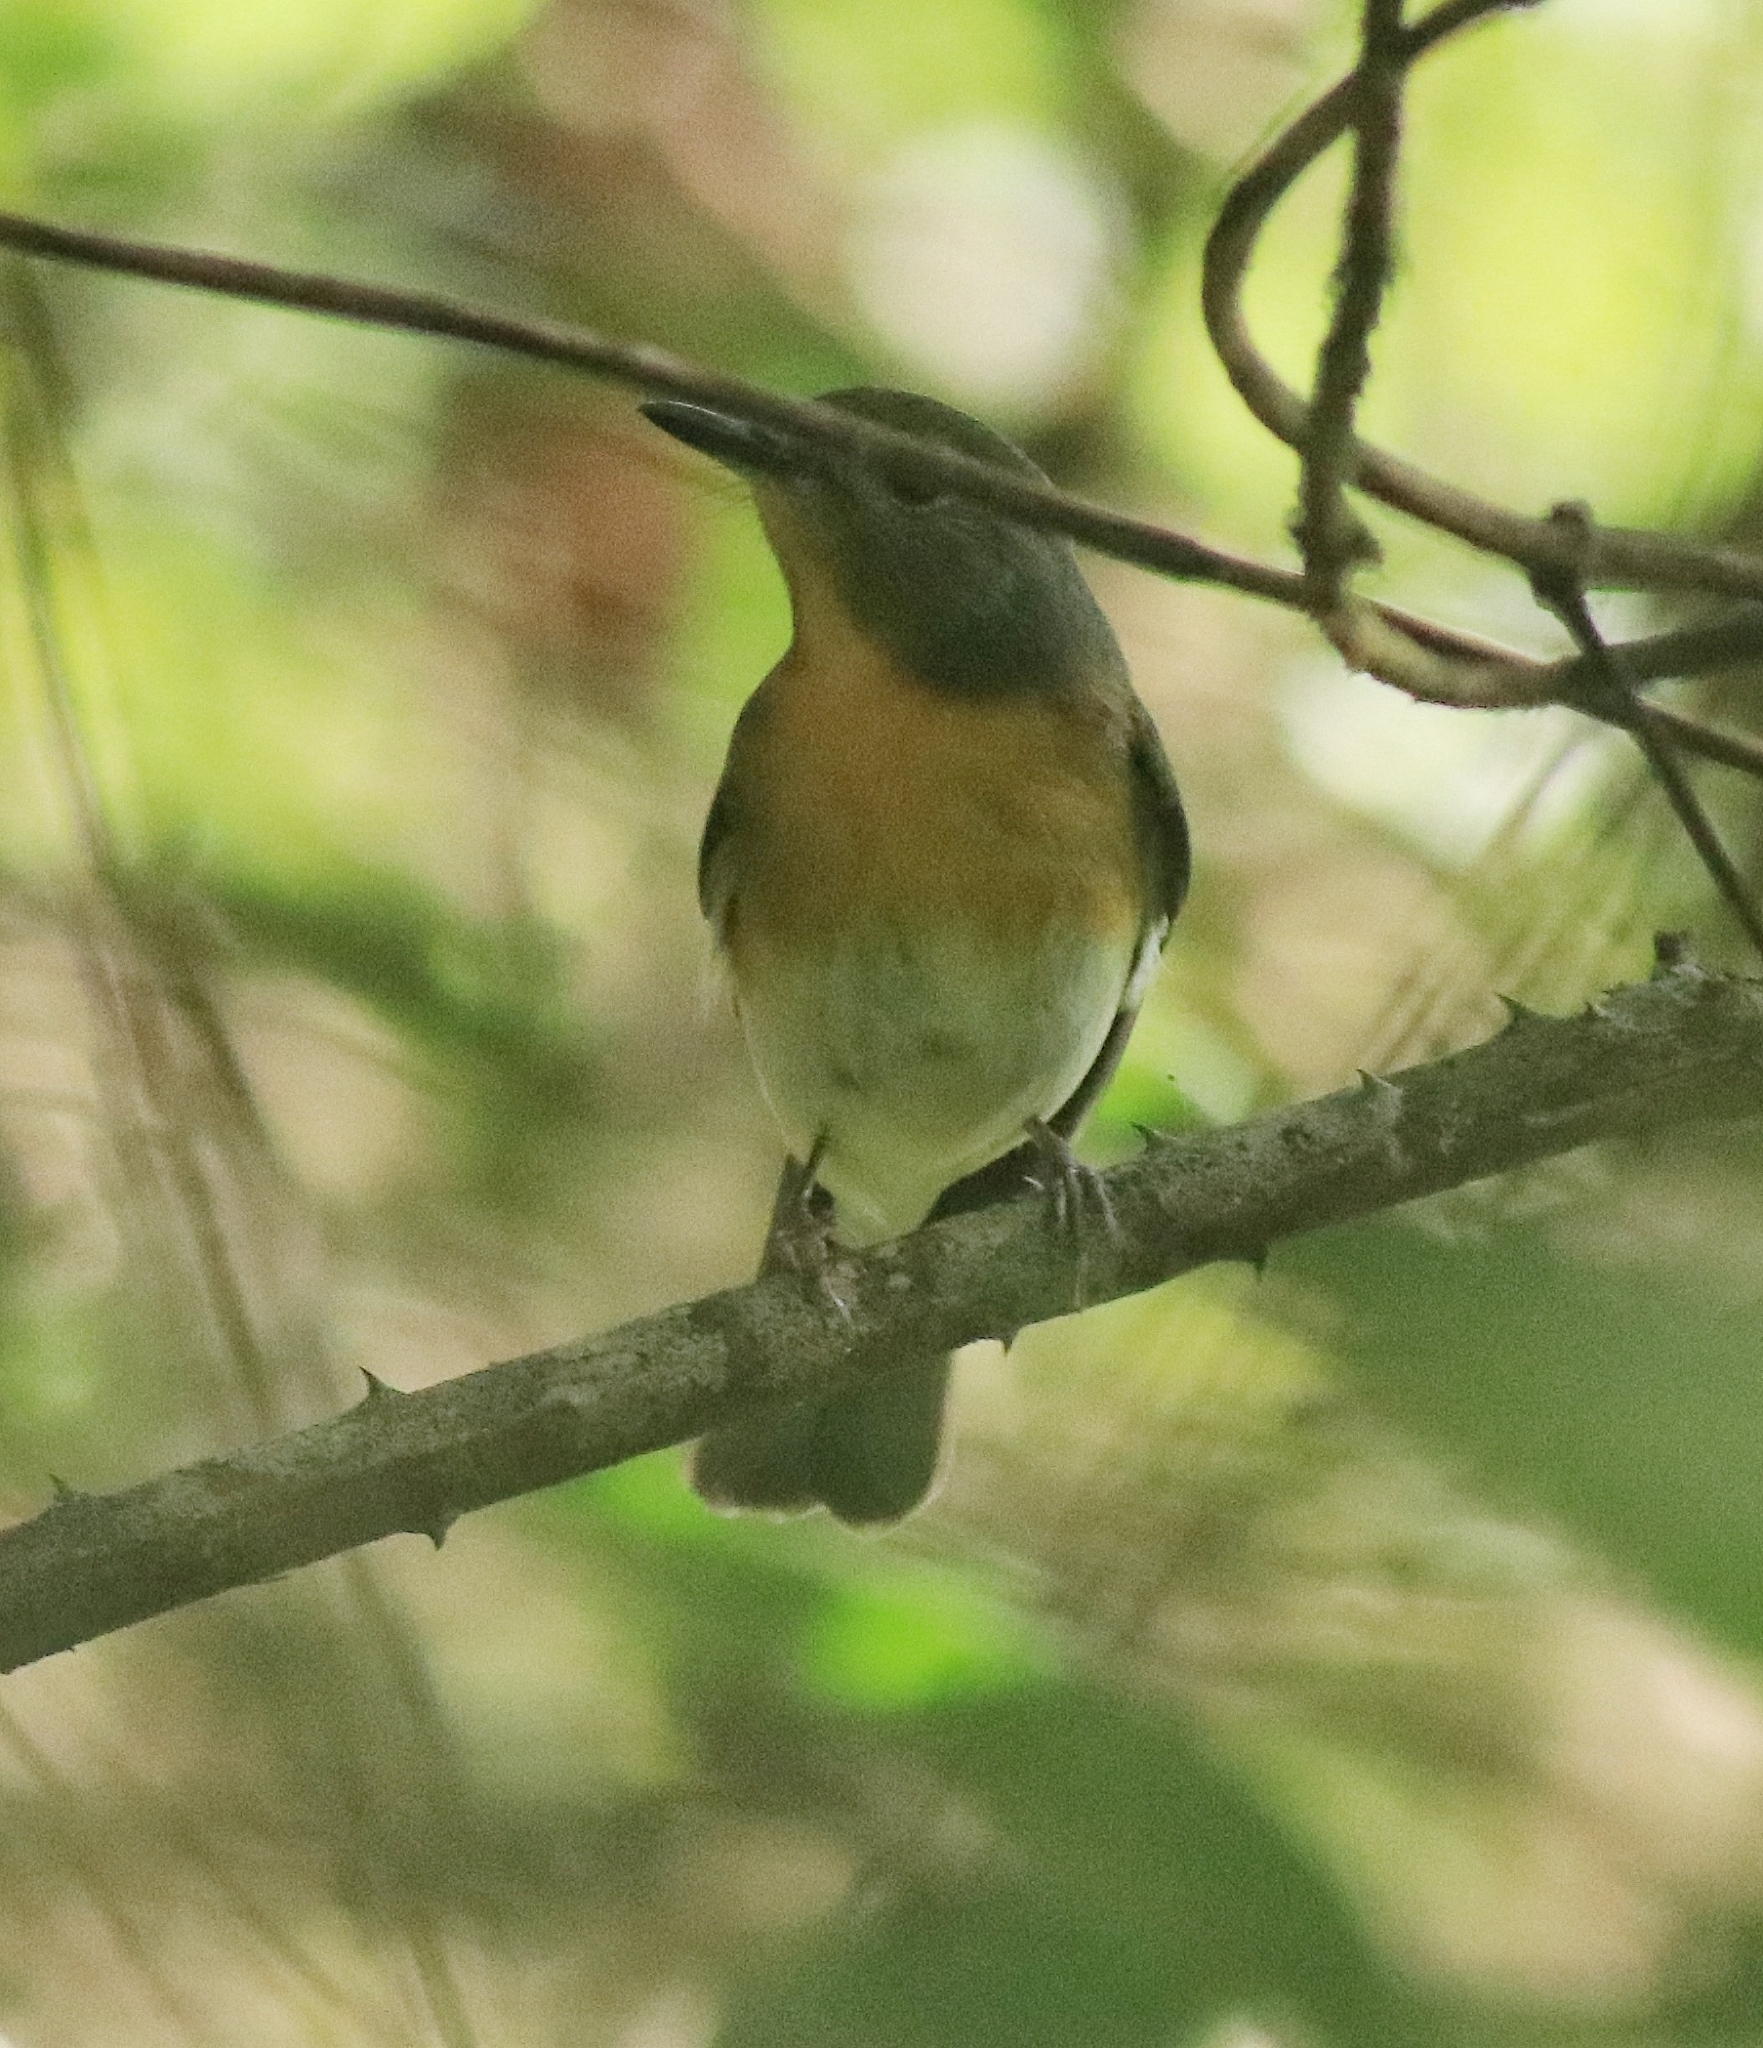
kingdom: Animalia
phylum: Chordata
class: Aves
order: Passeriformes
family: Muscicapidae
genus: Cyornis
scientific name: Cyornis rubeculoides
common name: Blue-throated blue flycatcher
